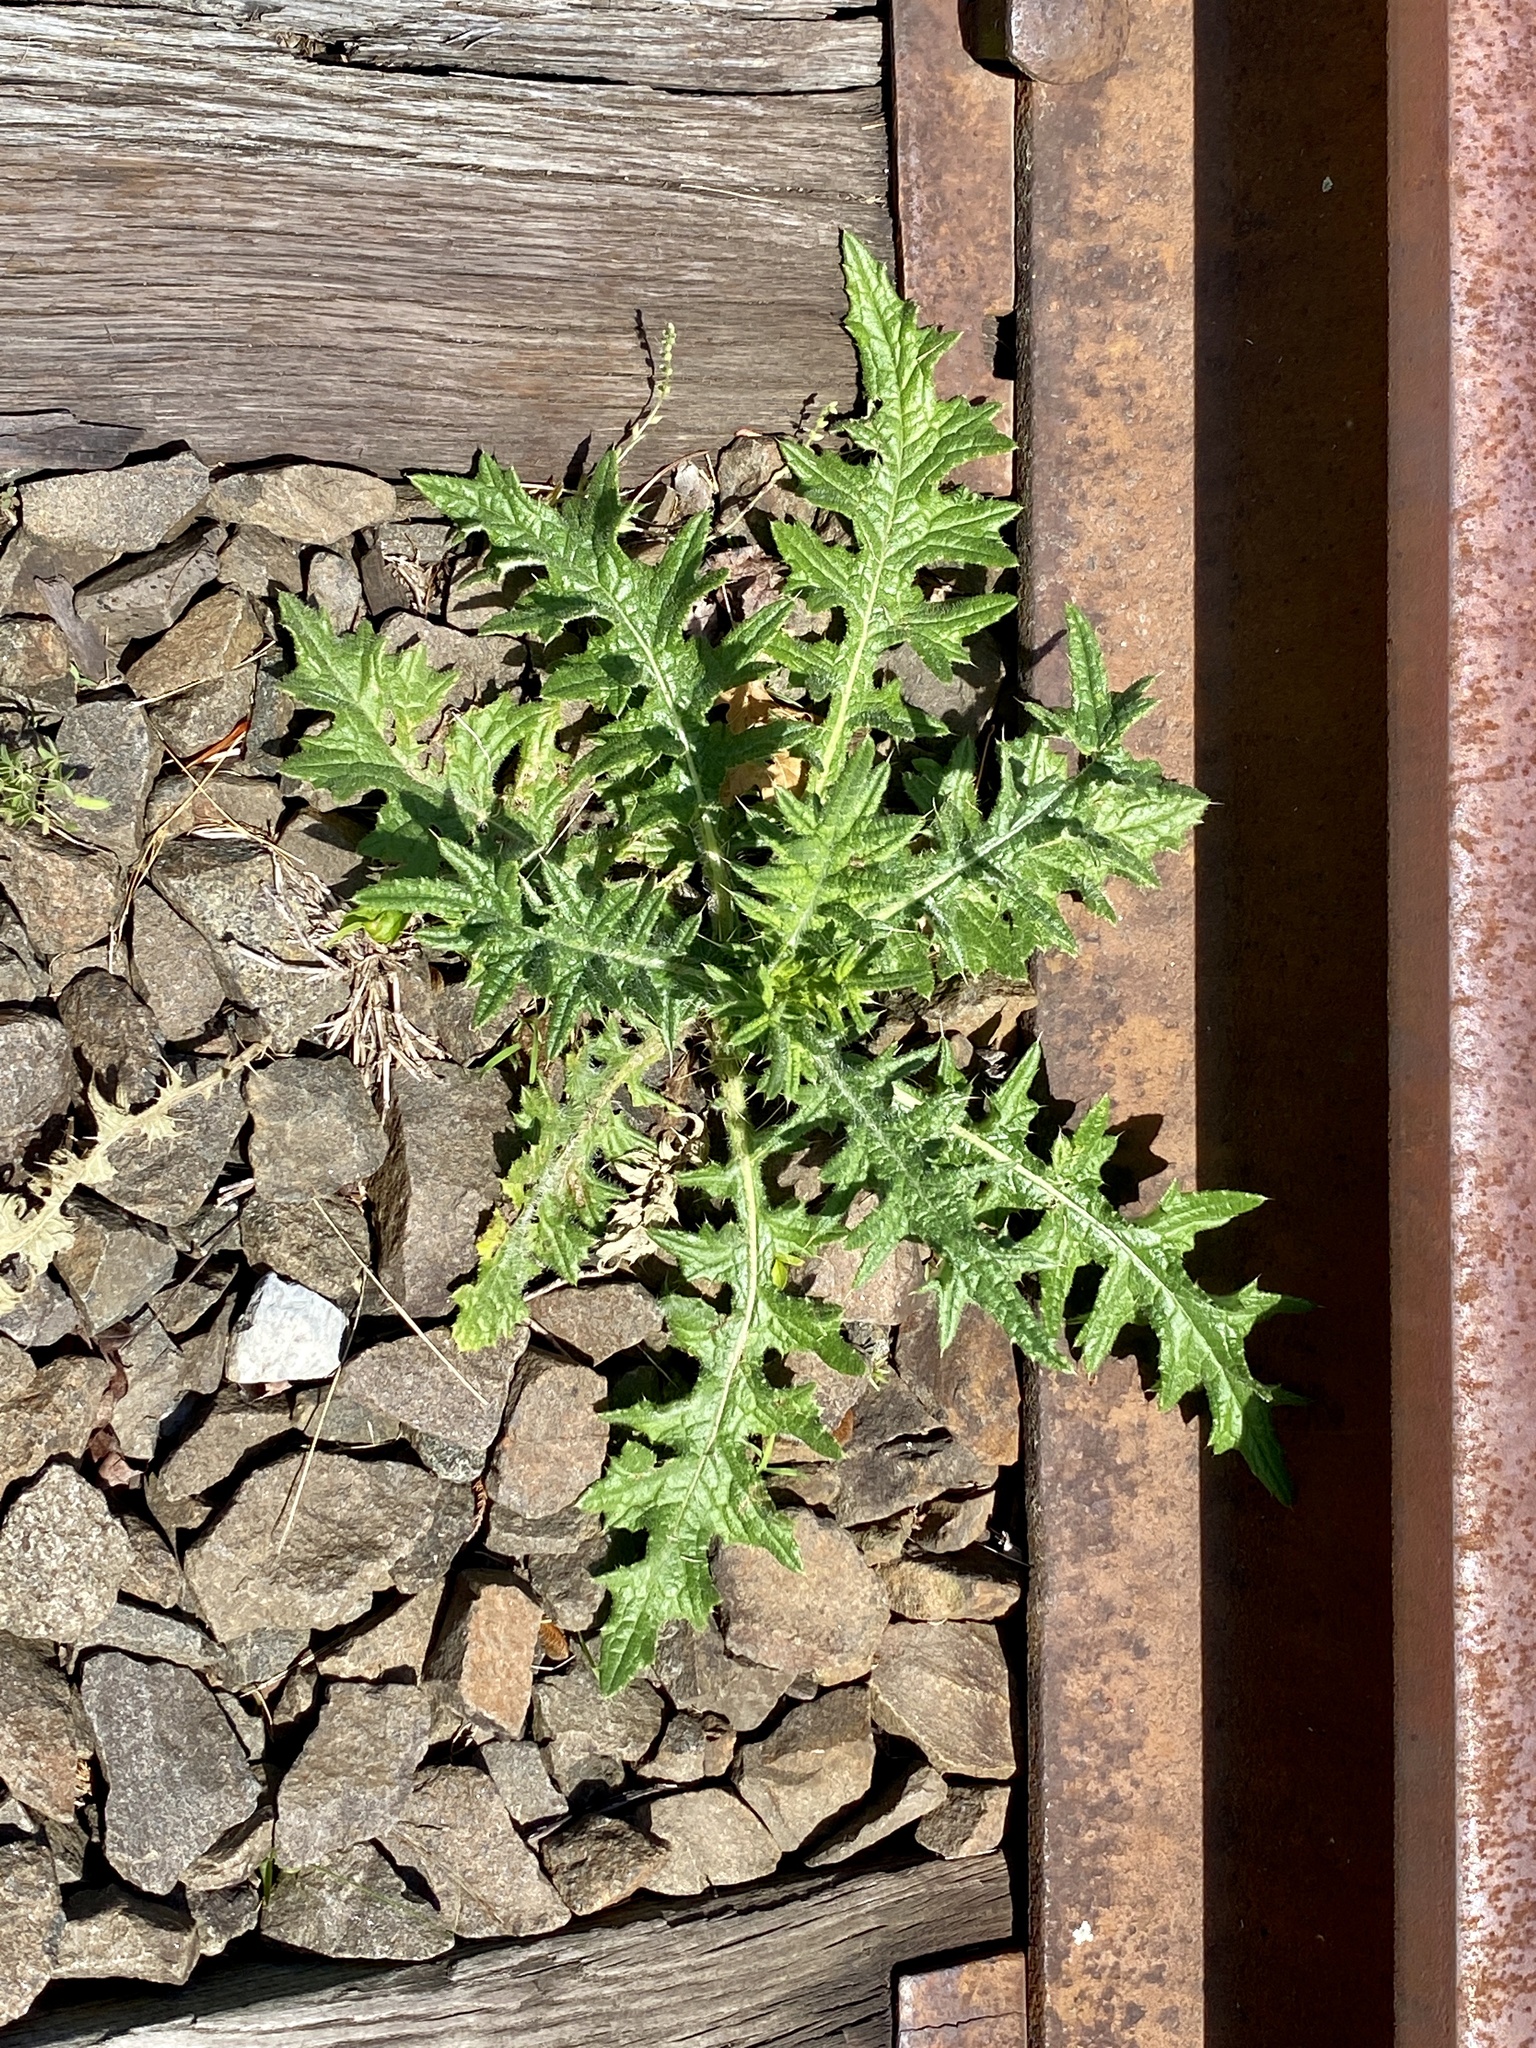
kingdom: Plantae
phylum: Tracheophyta
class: Magnoliopsida
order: Asterales
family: Asteraceae
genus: Cirsium
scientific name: Cirsium vulgare
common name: Bull thistle
